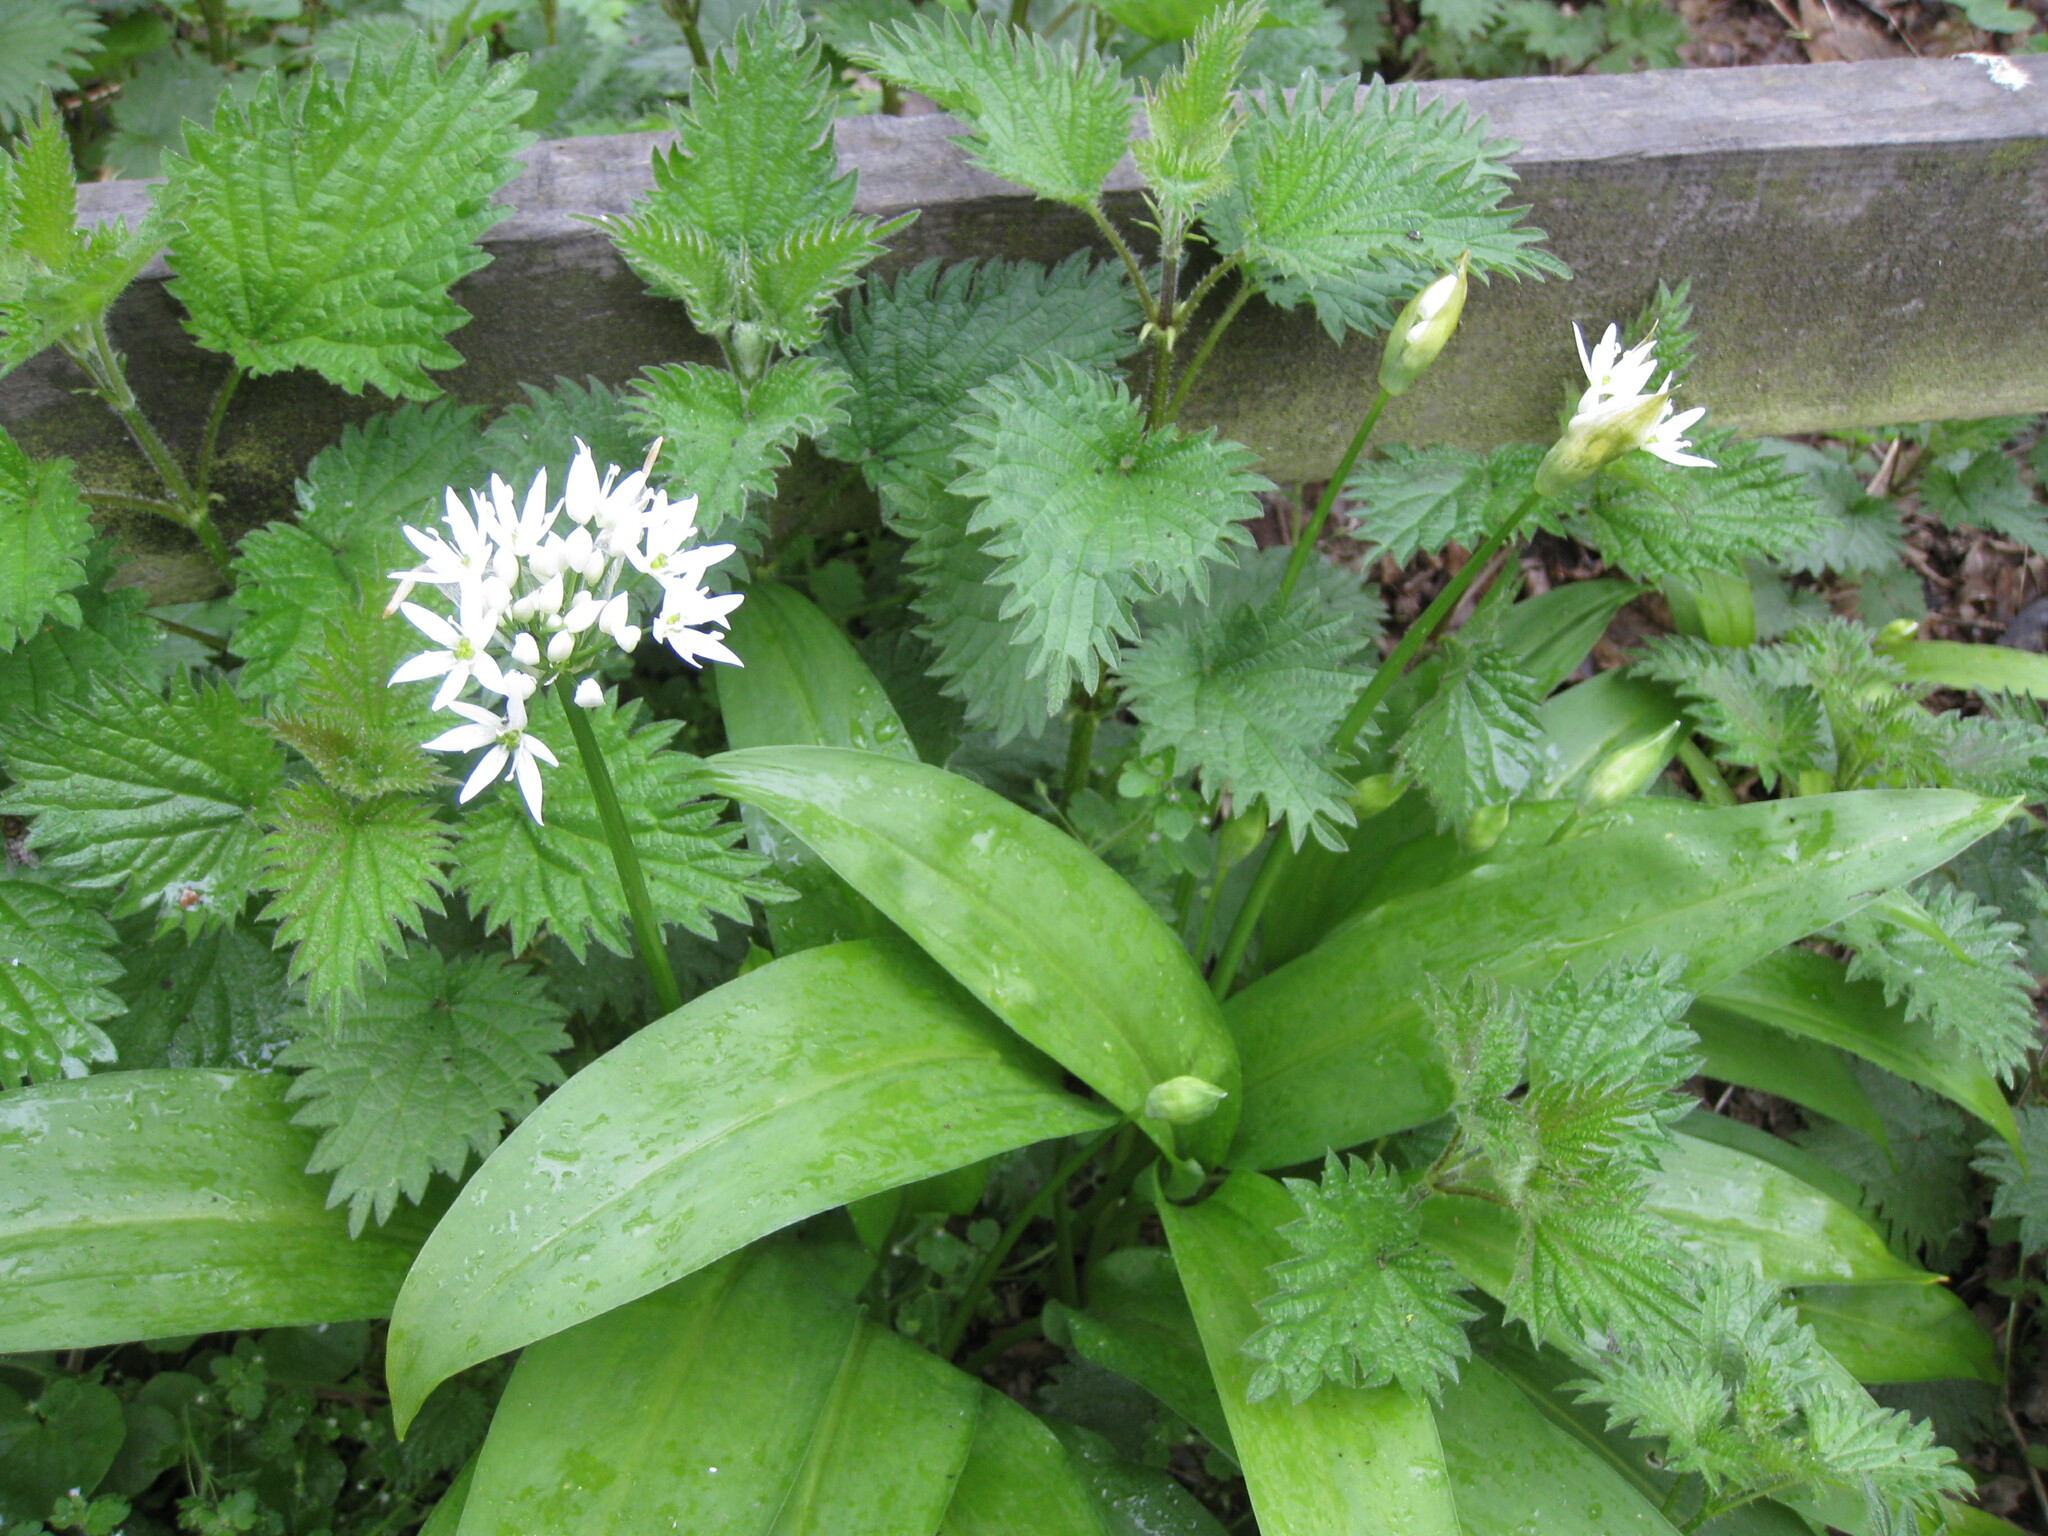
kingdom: Plantae
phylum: Tracheophyta
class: Liliopsida
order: Asparagales
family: Amaryllidaceae
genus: Allium
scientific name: Allium ursinum
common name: Ramsons
